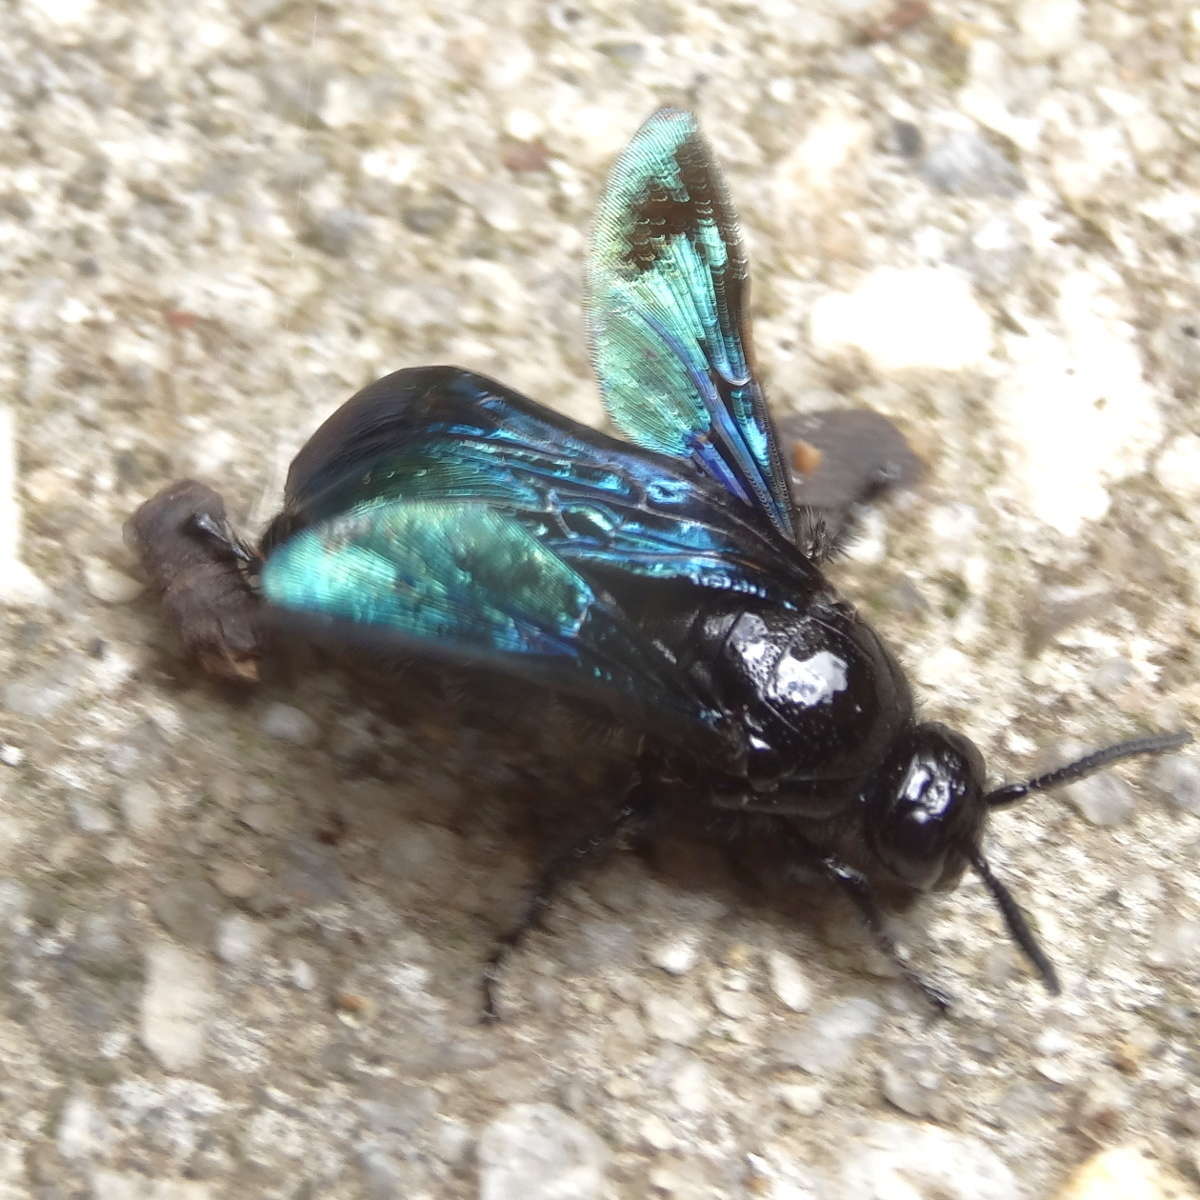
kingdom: Animalia
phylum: Arthropoda
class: Insecta
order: Hymenoptera
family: Scoliidae
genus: Austroscolia
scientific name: Austroscolia
